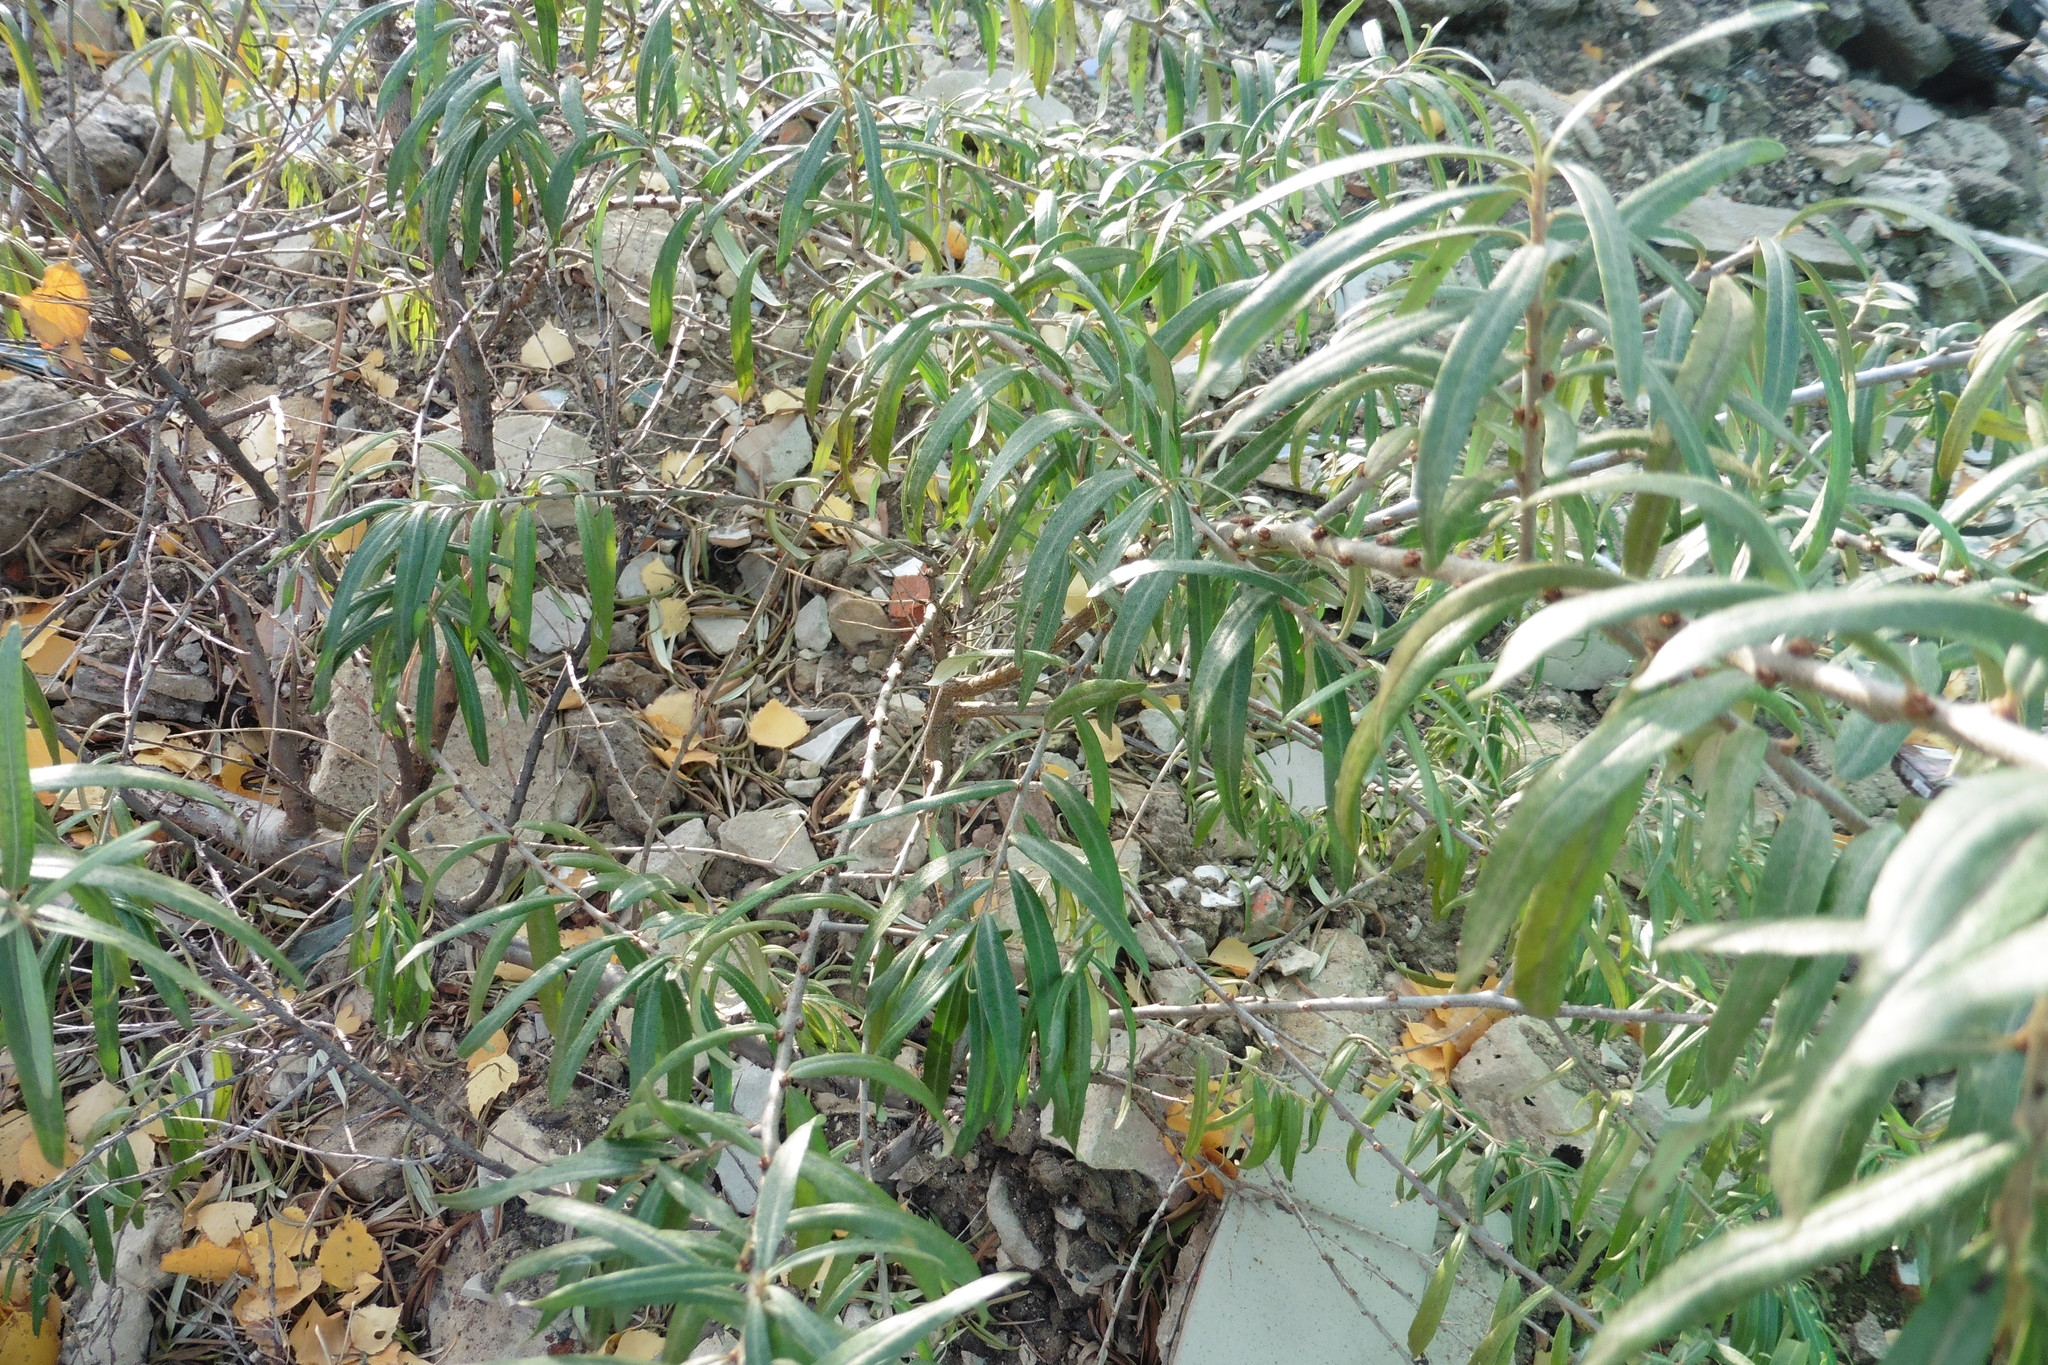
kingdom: Plantae
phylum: Tracheophyta
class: Magnoliopsida
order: Rosales
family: Elaeagnaceae
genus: Hippophae
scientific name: Hippophae rhamnoides
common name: Sea-buckthorn
